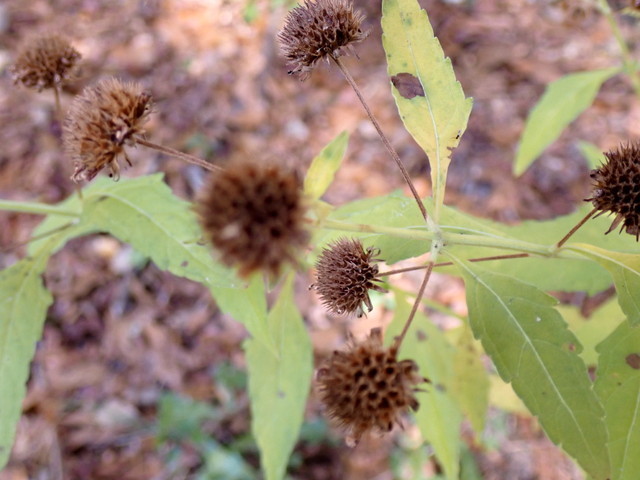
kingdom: Plantae
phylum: Tracheophyta
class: Magnoliopsida
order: Lamiales
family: Lamiaceae
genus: Hyptis
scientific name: Hyptis alata
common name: Cluster bush-mint
